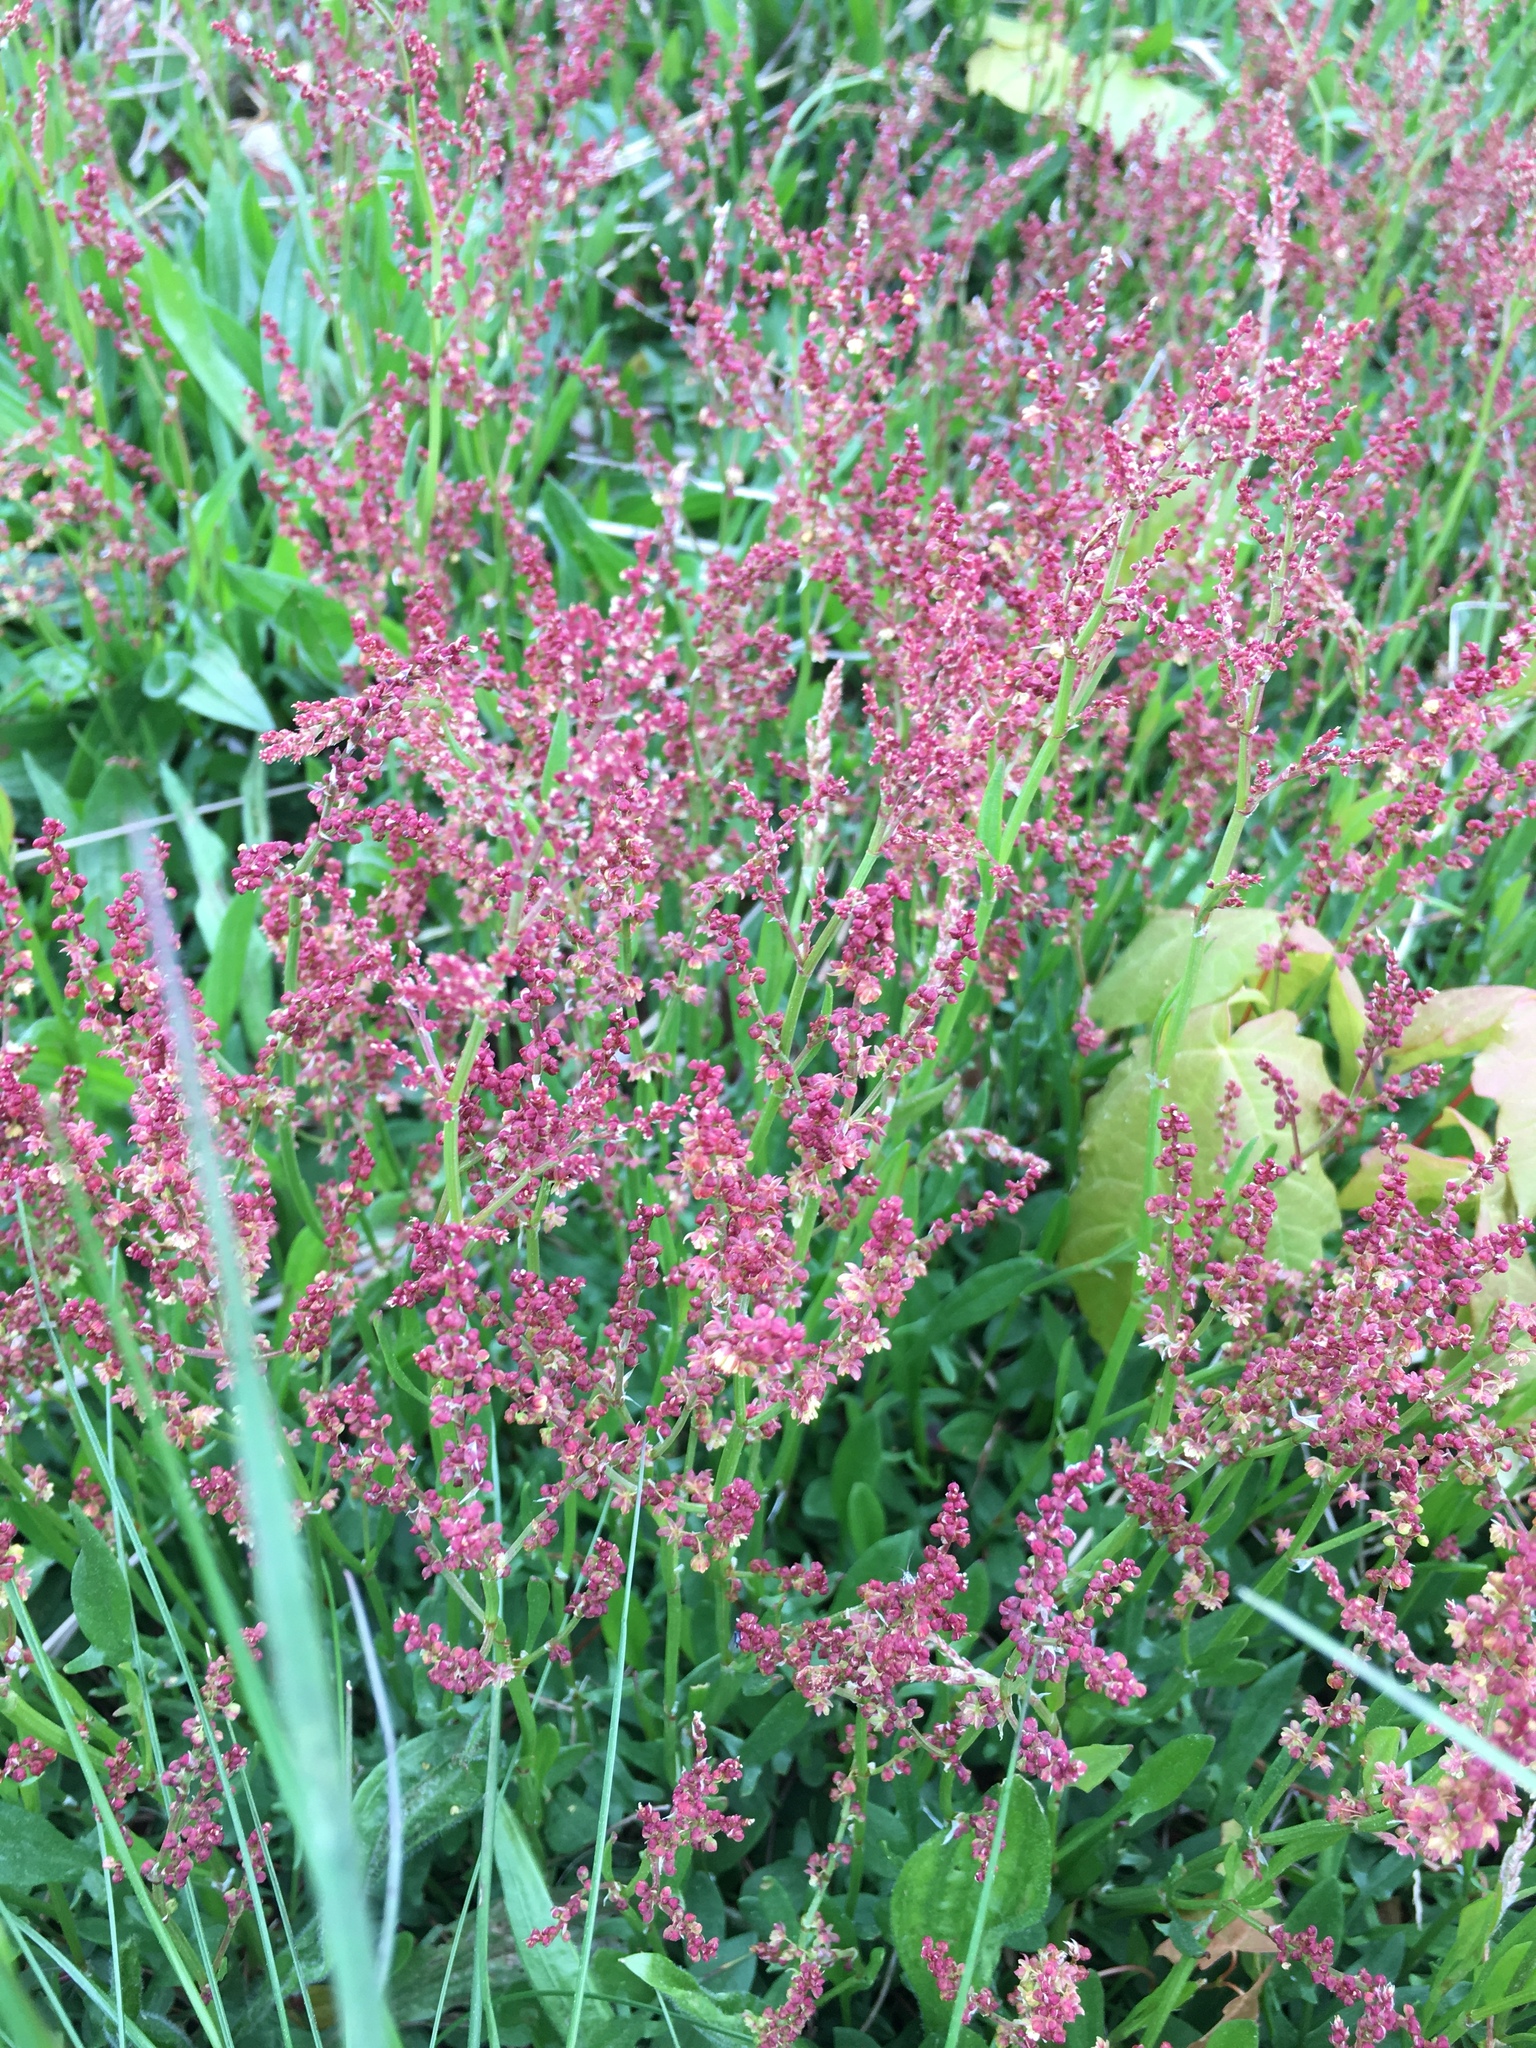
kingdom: Plantae
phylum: Tracheophyta
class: Magnoliopsida
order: Caryophyllales
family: Polygonaceae
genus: Rumex
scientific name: Rumex acetosella
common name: Common sheep sorrel
